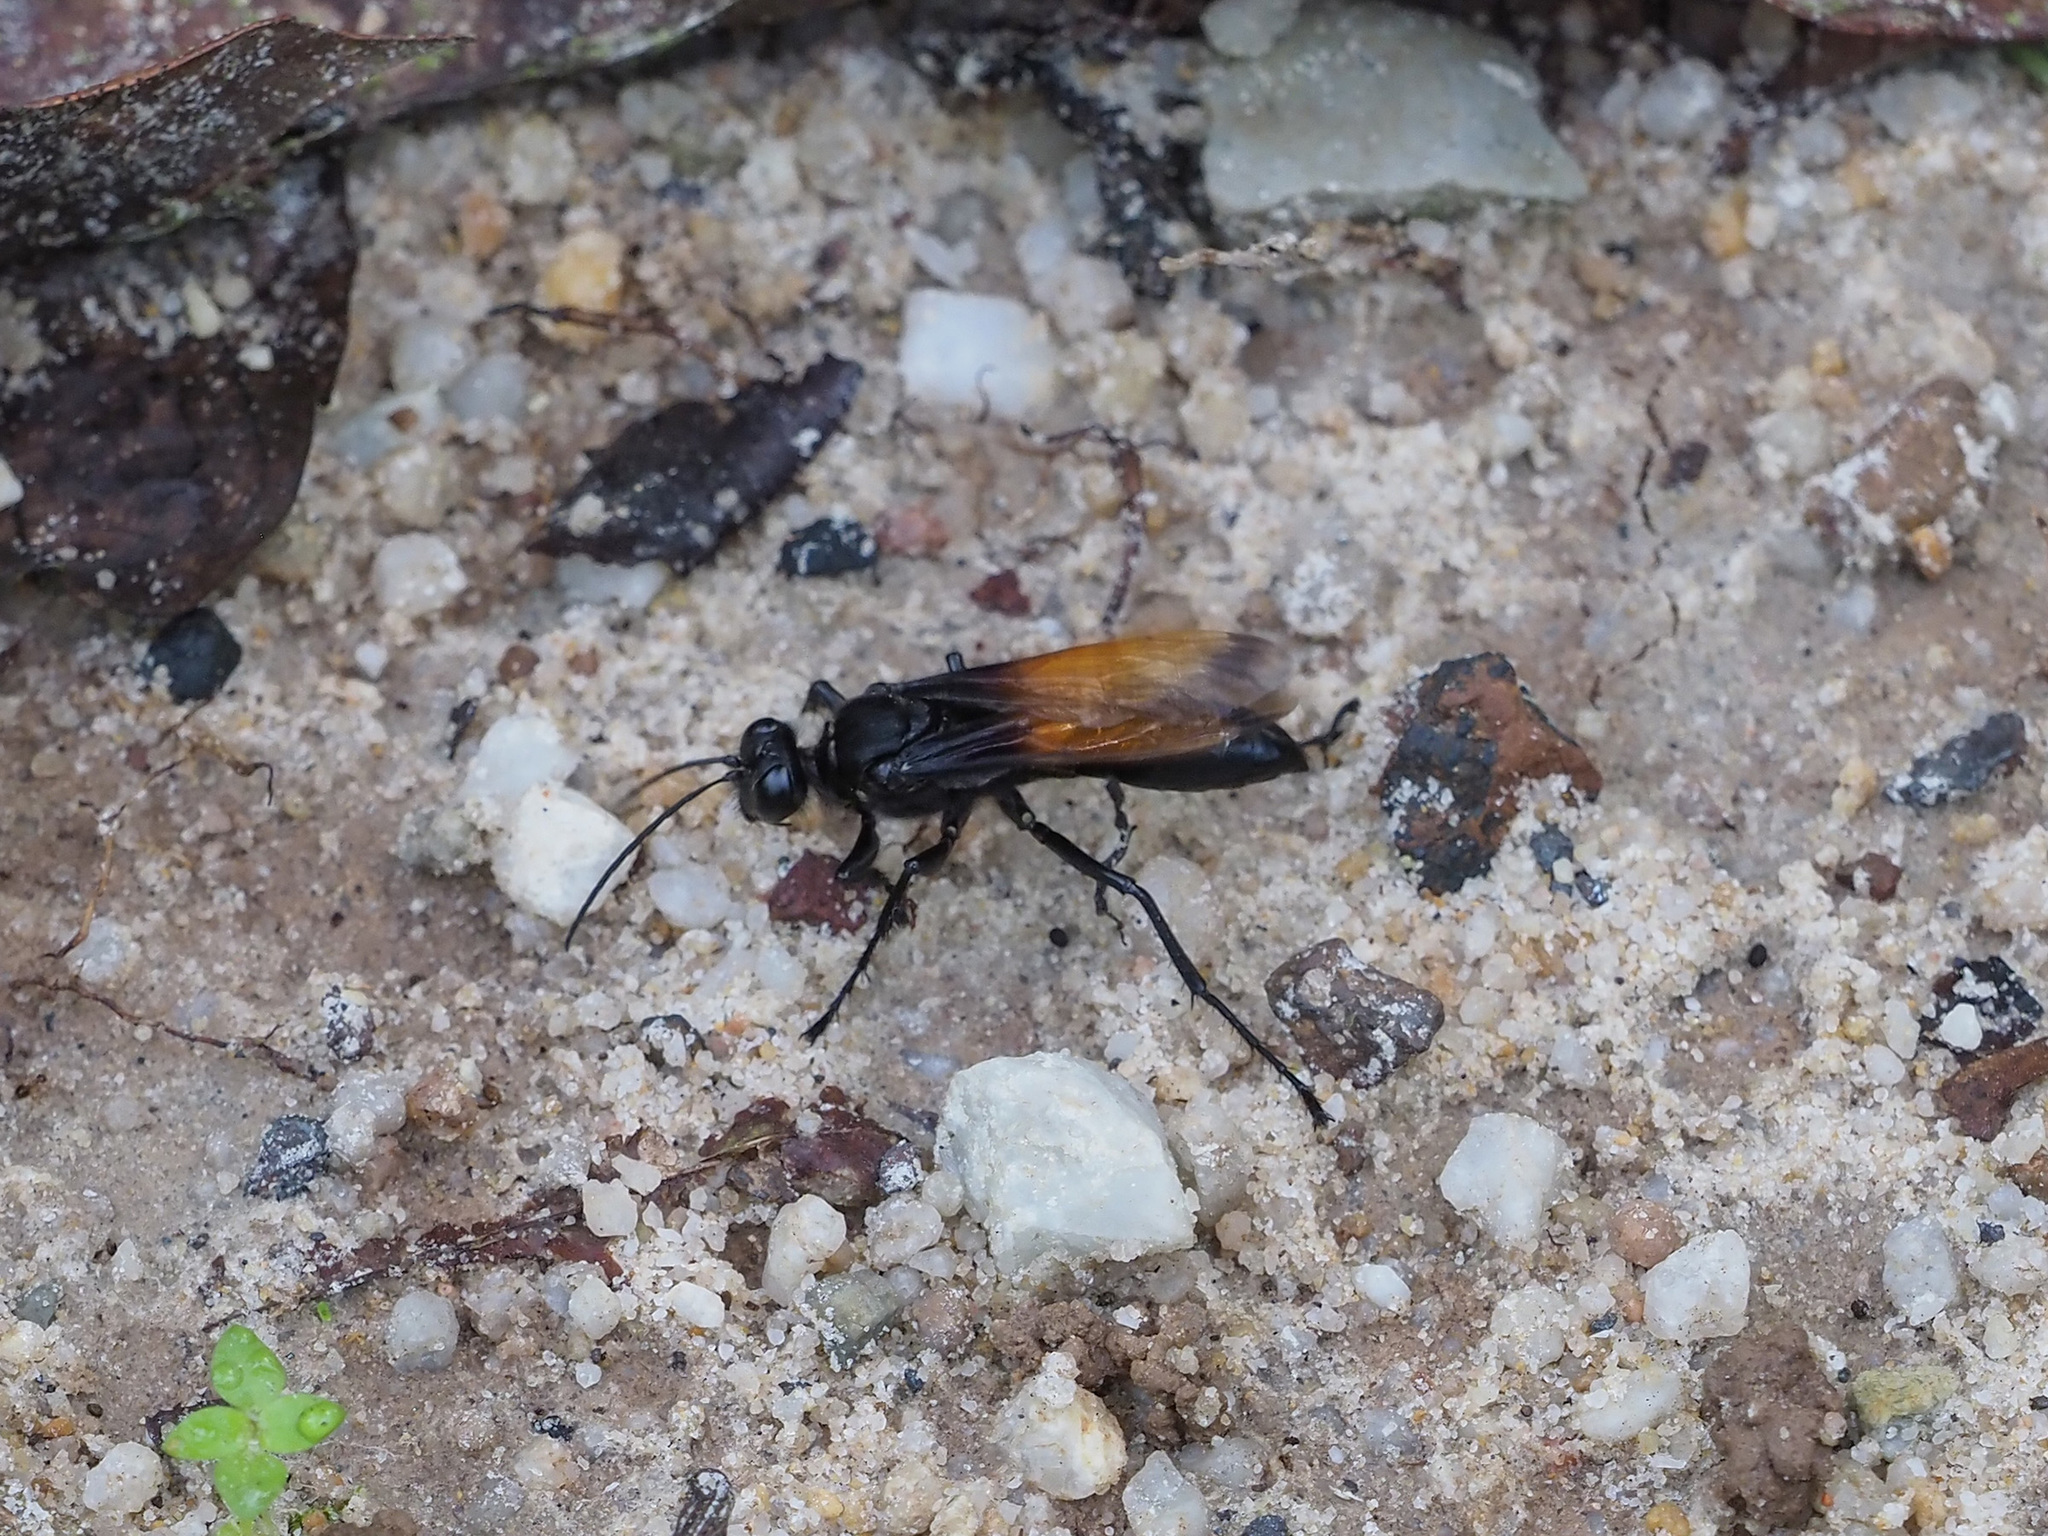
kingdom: Animalia
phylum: Arthropoda
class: Insecta
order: Hymenoptera
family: Sphecidae
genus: Sphex
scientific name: Sphex diabolicus
